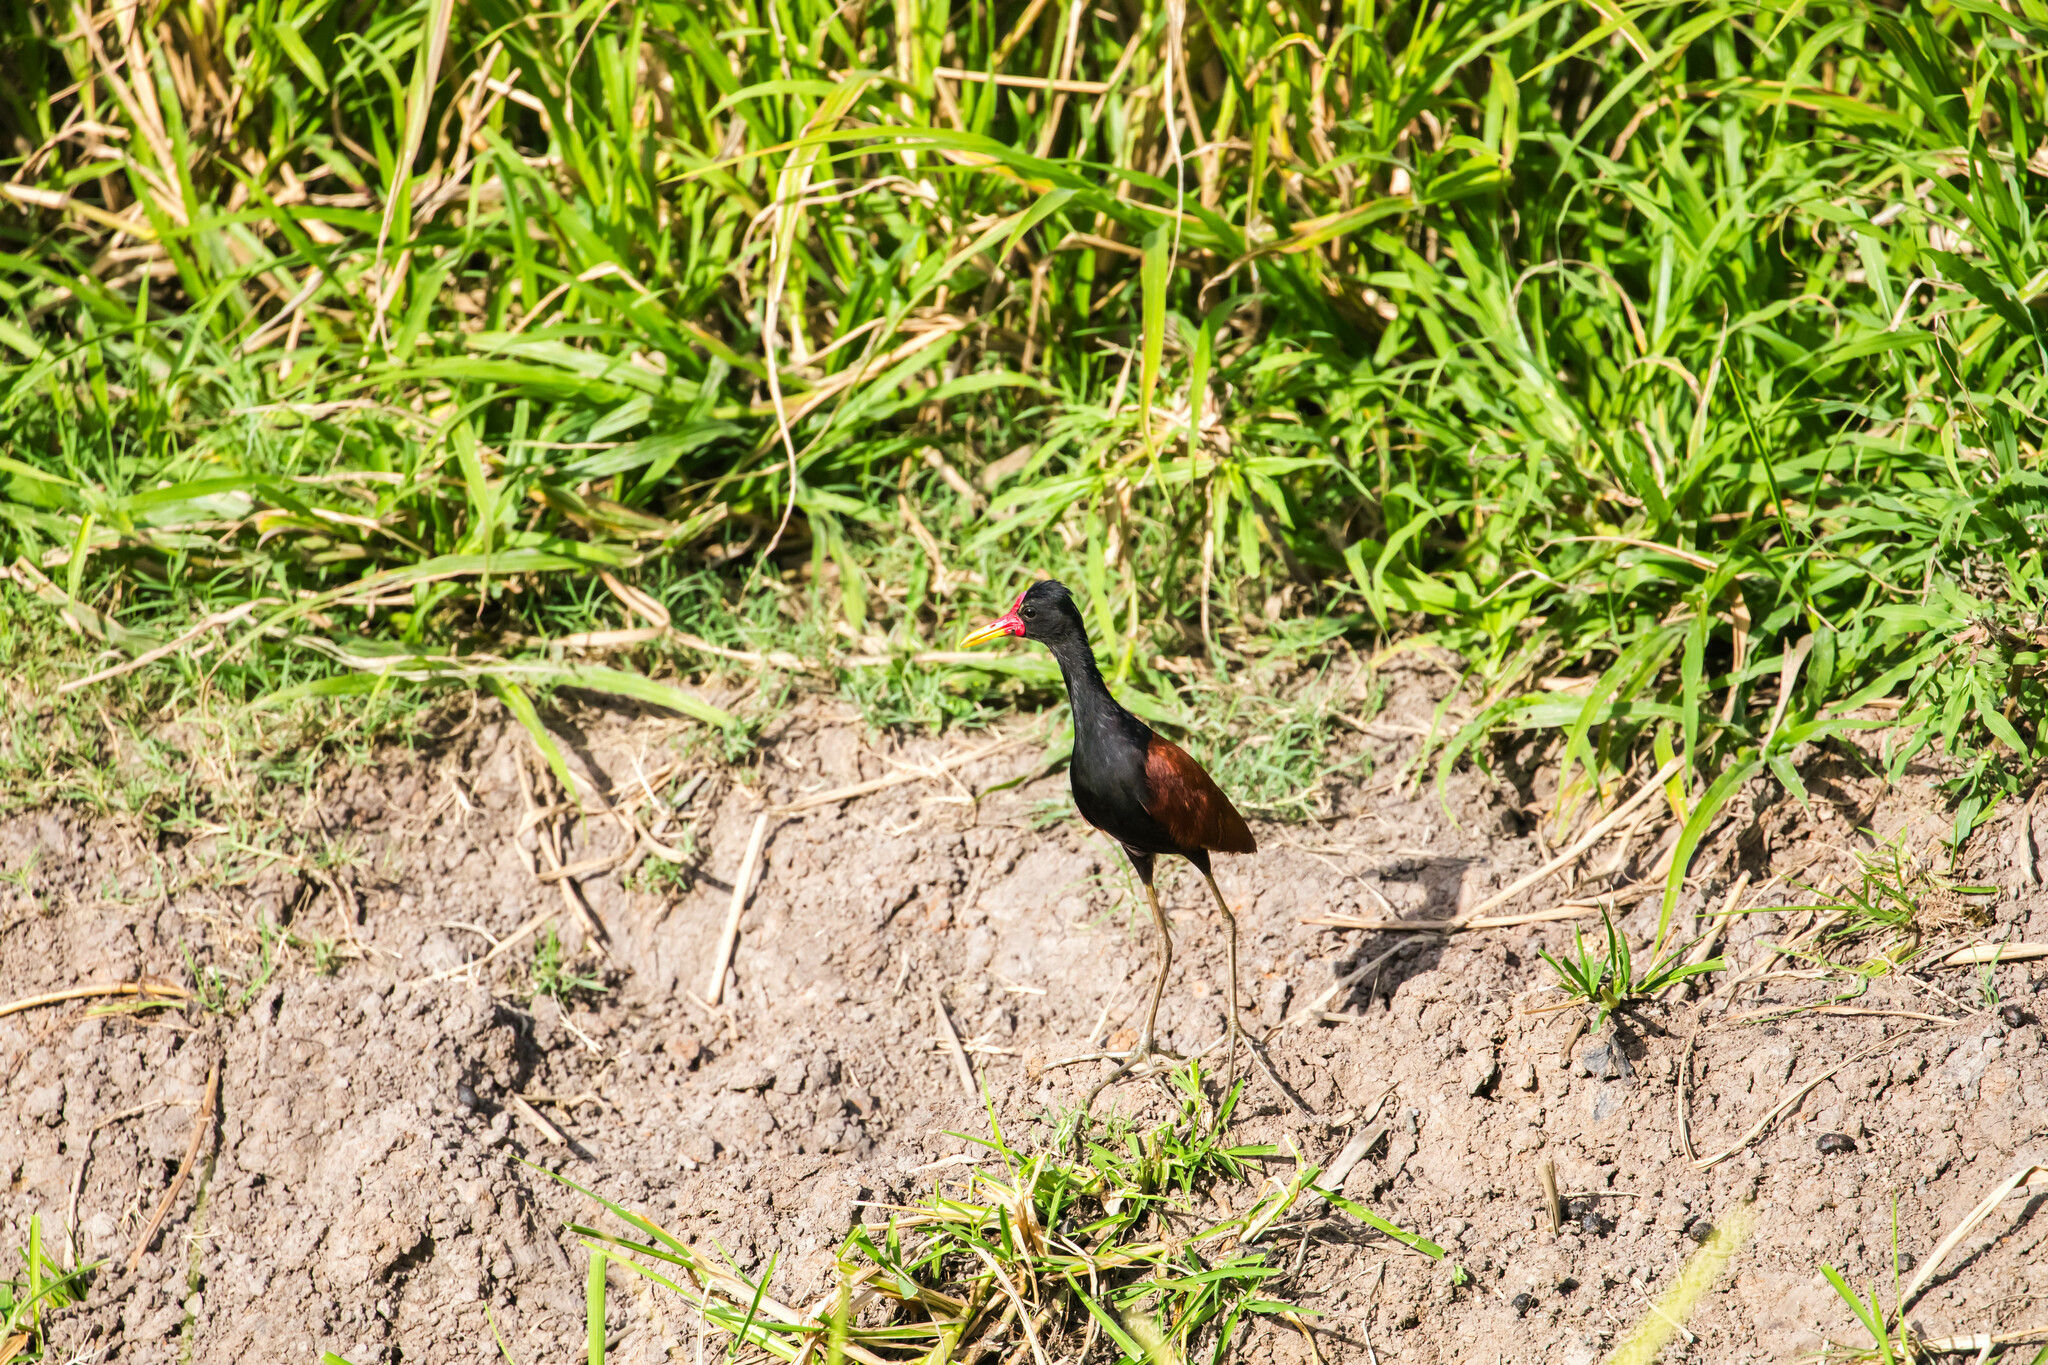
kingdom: Animalia
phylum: Chordata
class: Aves
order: Charadriiformes
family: Jacanidae
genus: Jacana
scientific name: Jacana jacana
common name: Wattled jacana
